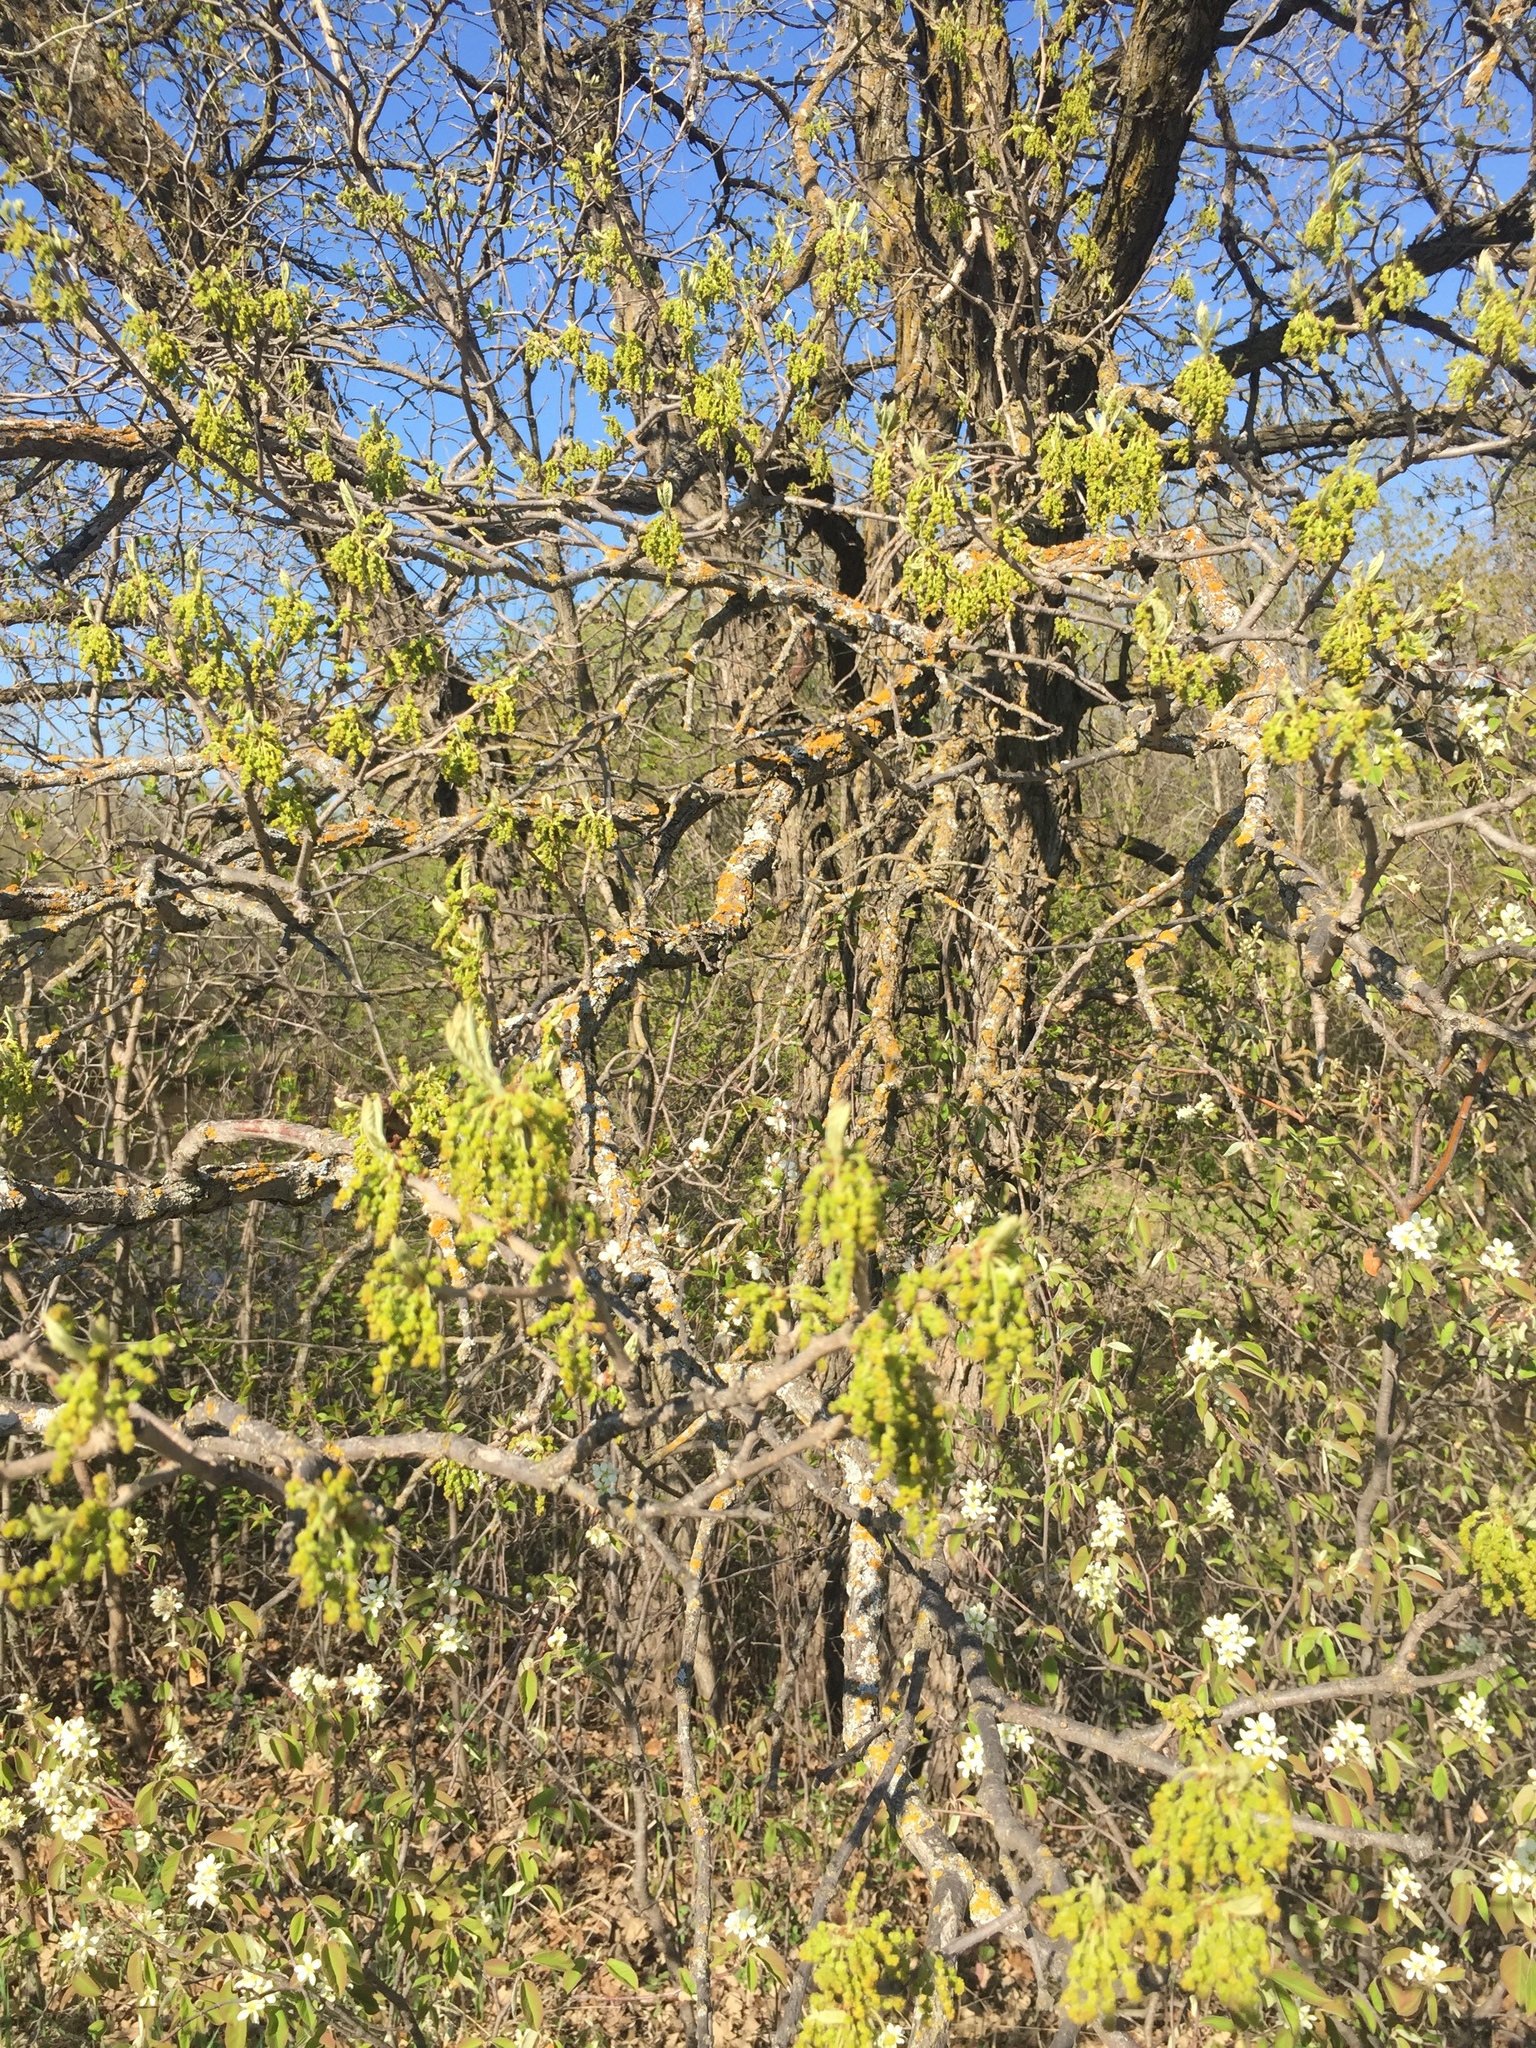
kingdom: Plantae
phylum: Tracheophyta
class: Magnoliopsida
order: Fagales
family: Fagaceae
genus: Quercus
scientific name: Quercus macrocarpa
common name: Bur oak
